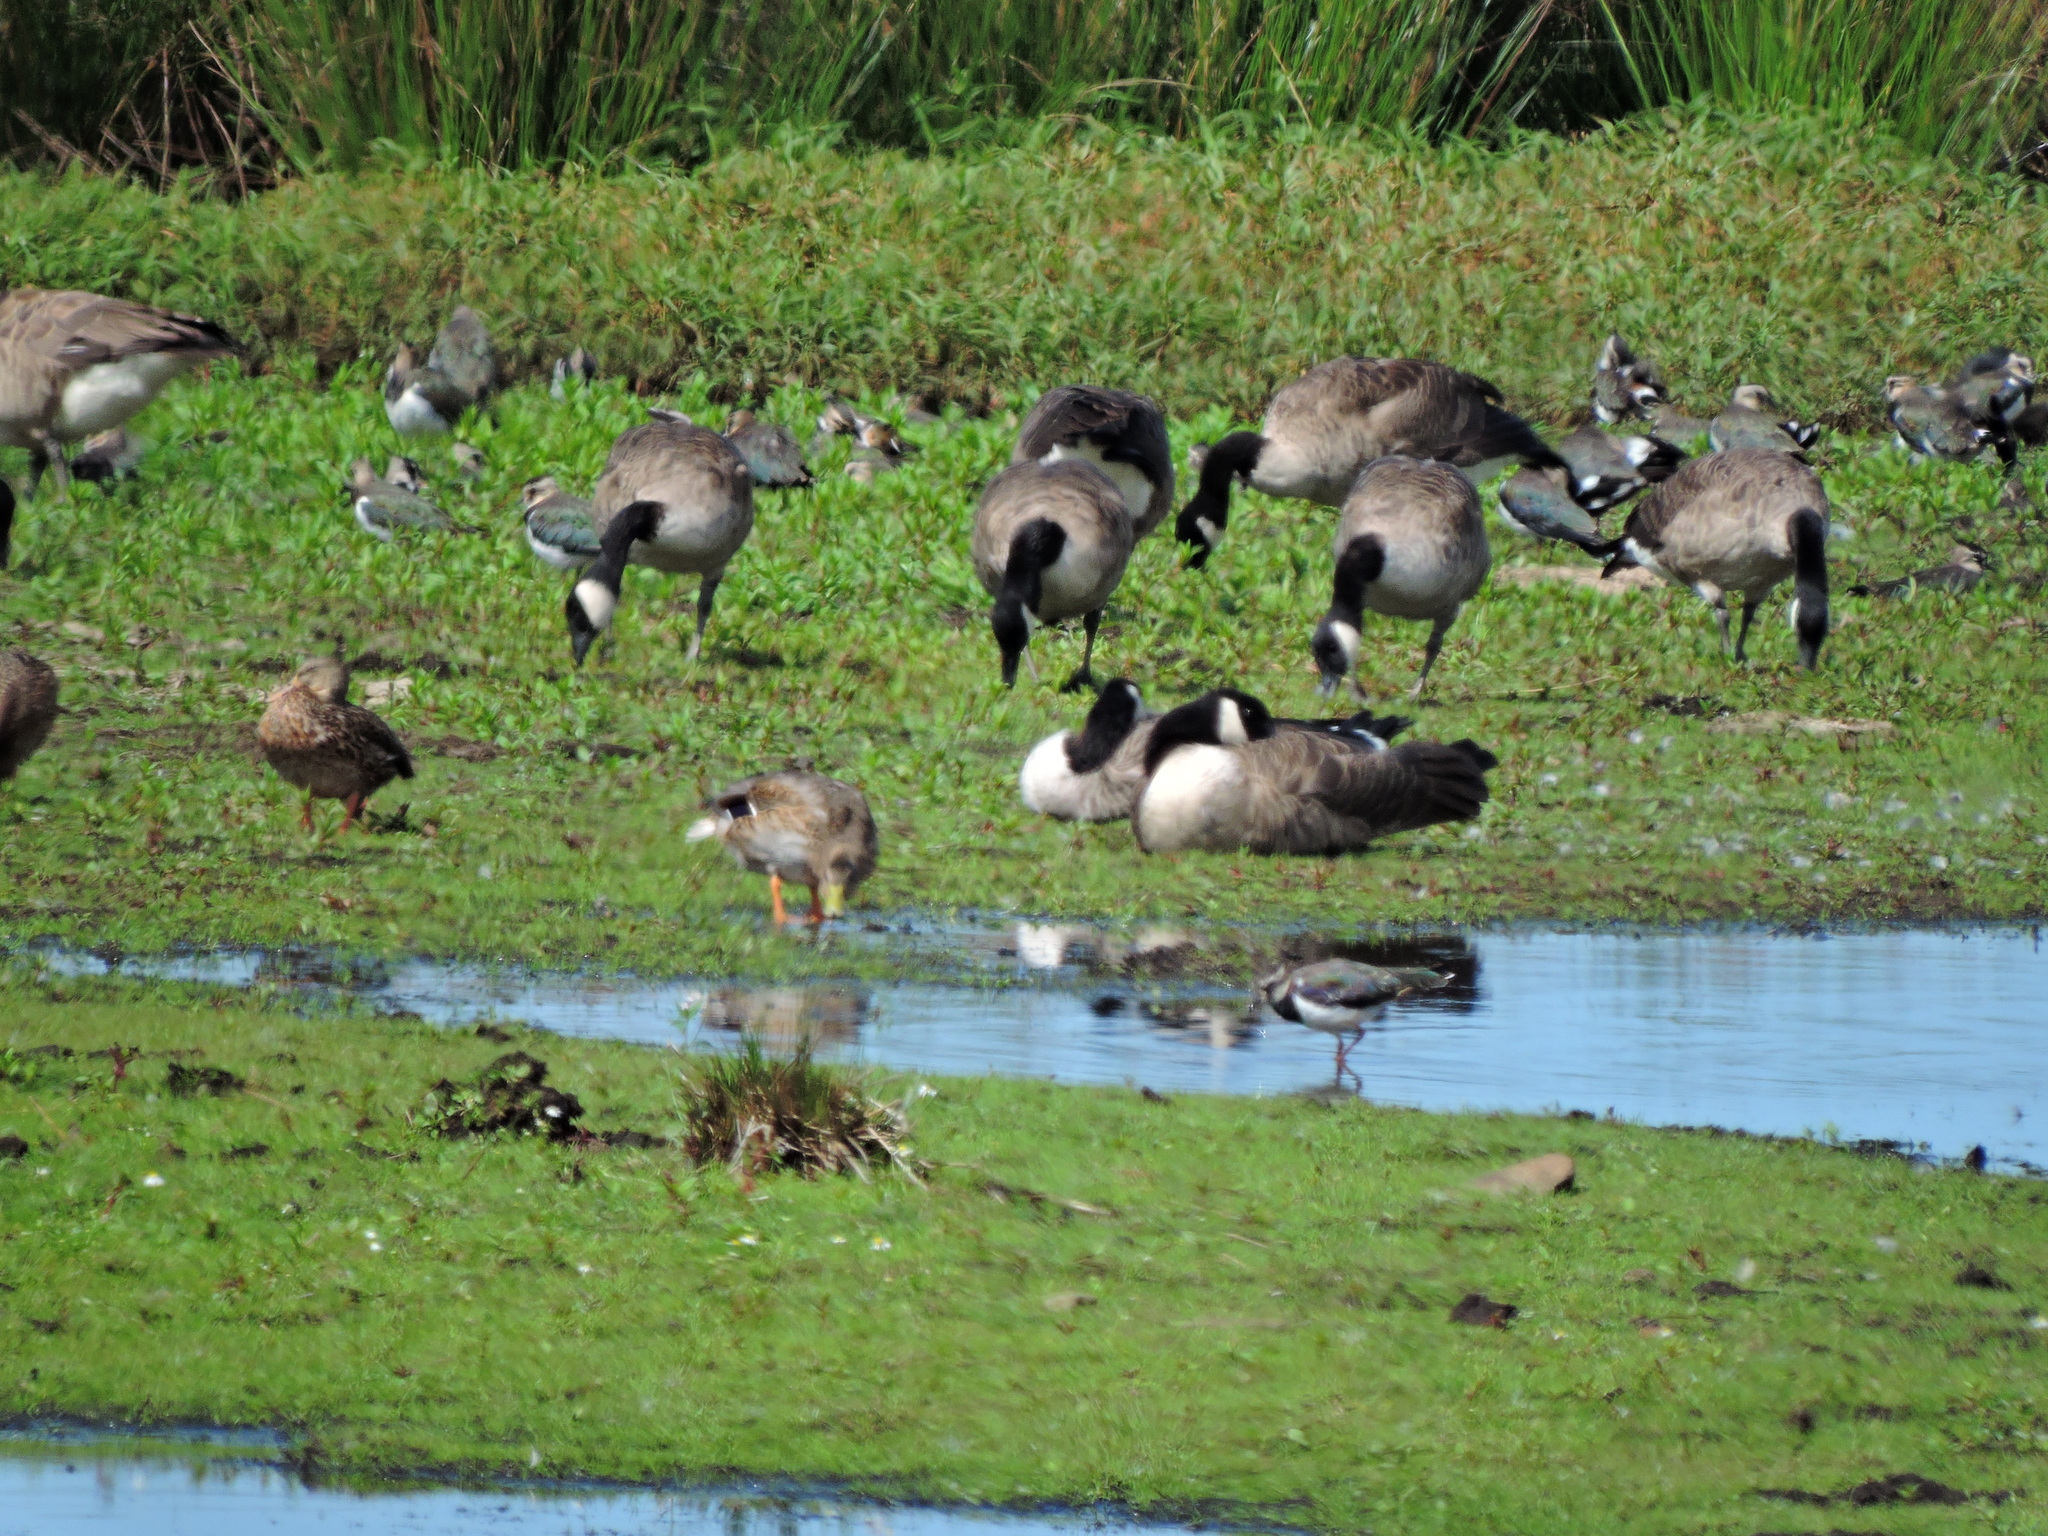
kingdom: Animalia
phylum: Chordata
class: Aves
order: Anseriformes
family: Anatidae
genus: Branta
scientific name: Branta canadensis
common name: Canada goose
